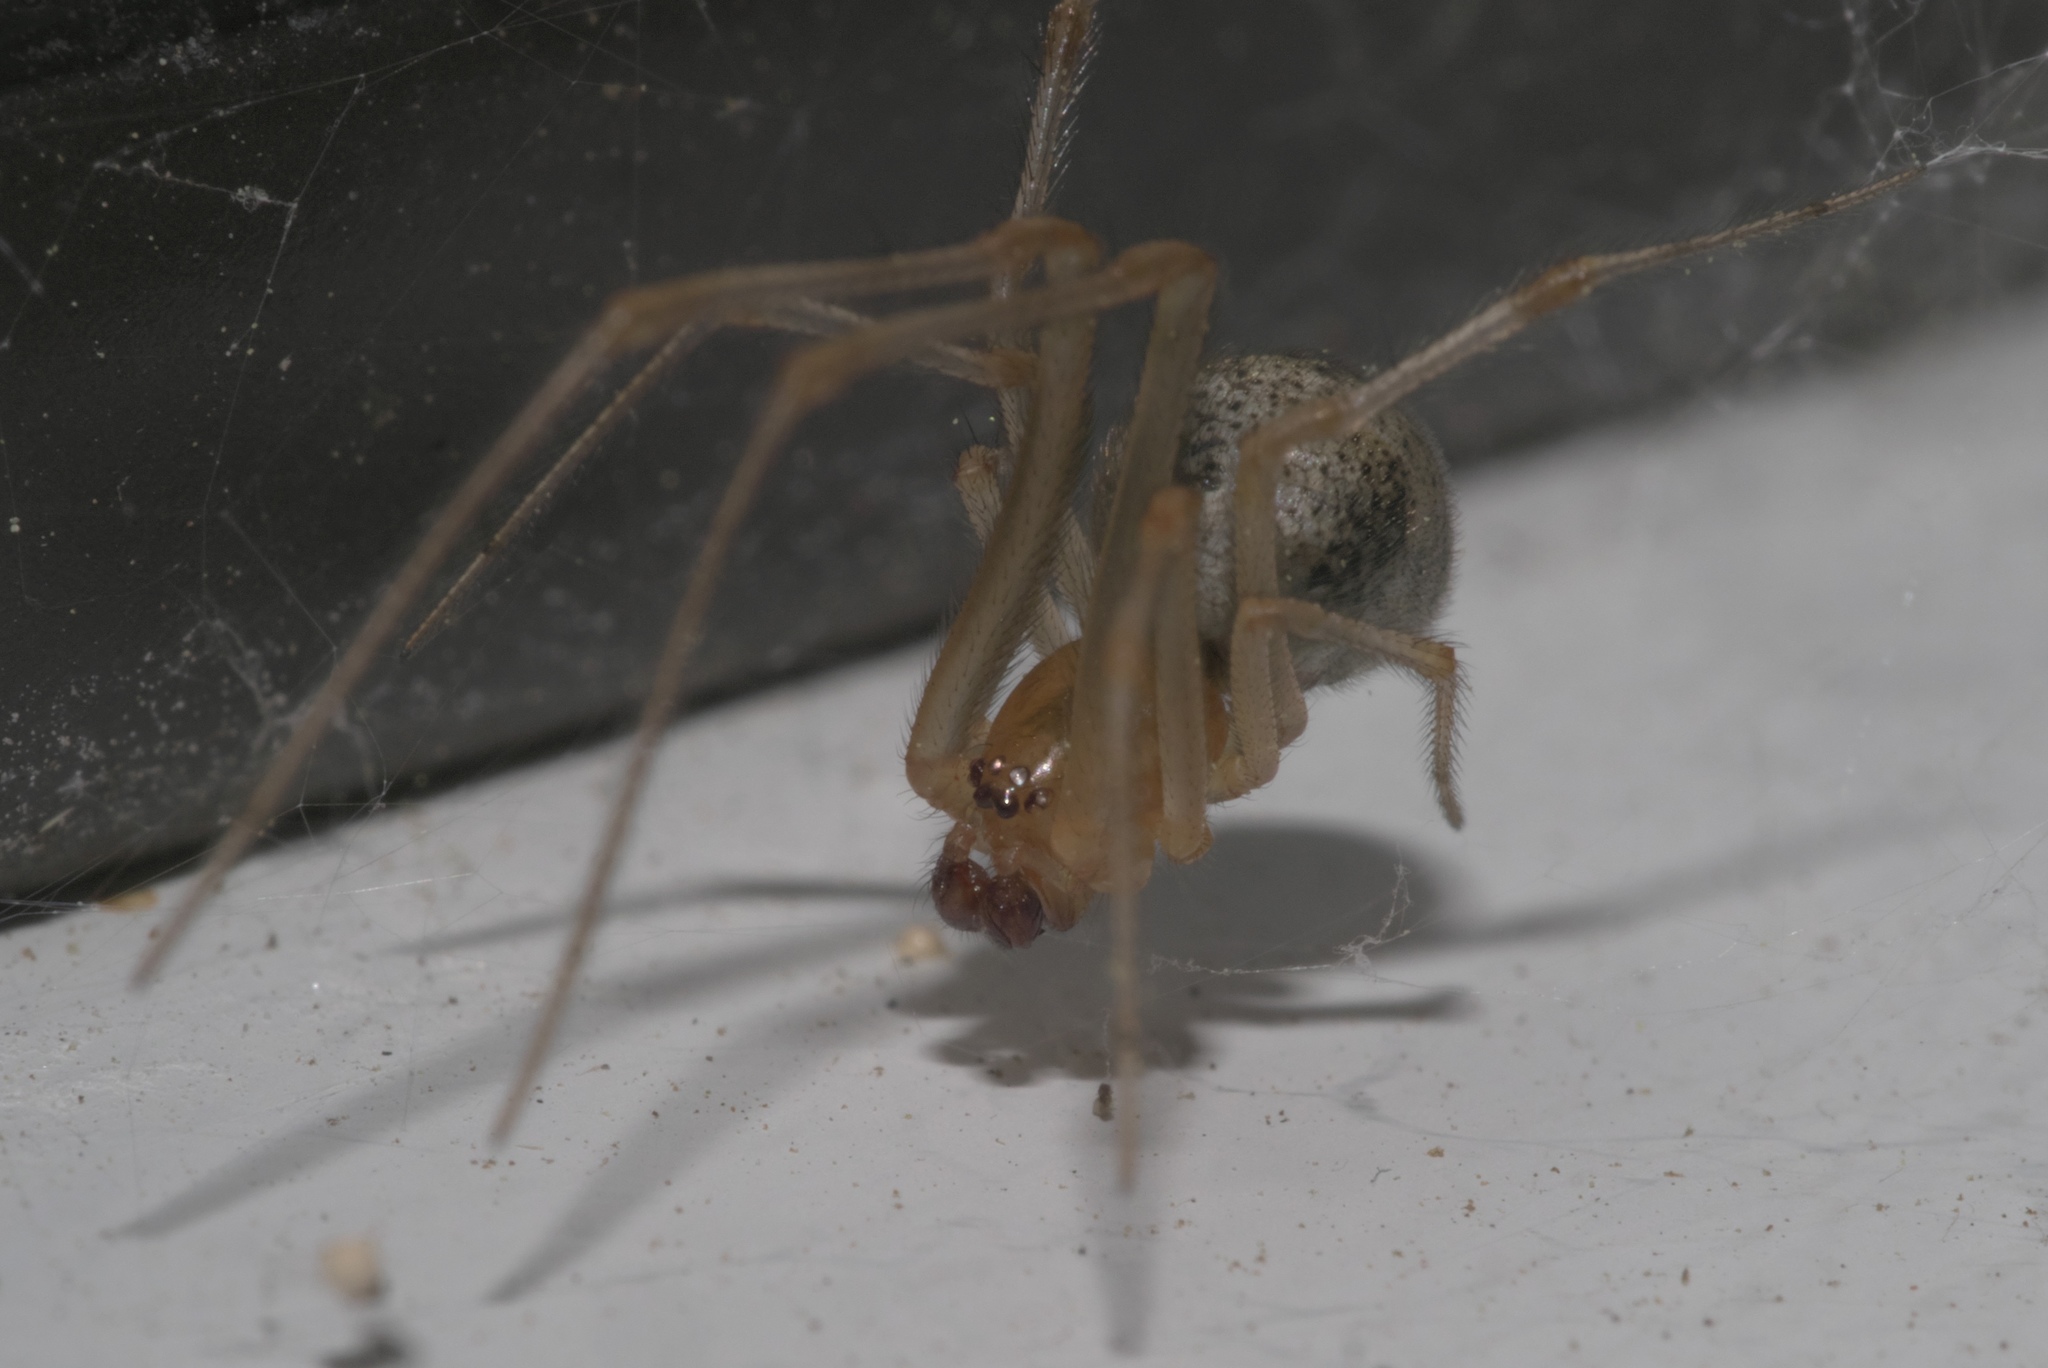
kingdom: Animalia
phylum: Arthropoda
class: Arachnida
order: Araneae
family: Theridiidae
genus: Parasteatoda
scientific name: Parasteatoda tepidariorum
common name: Common house spider
